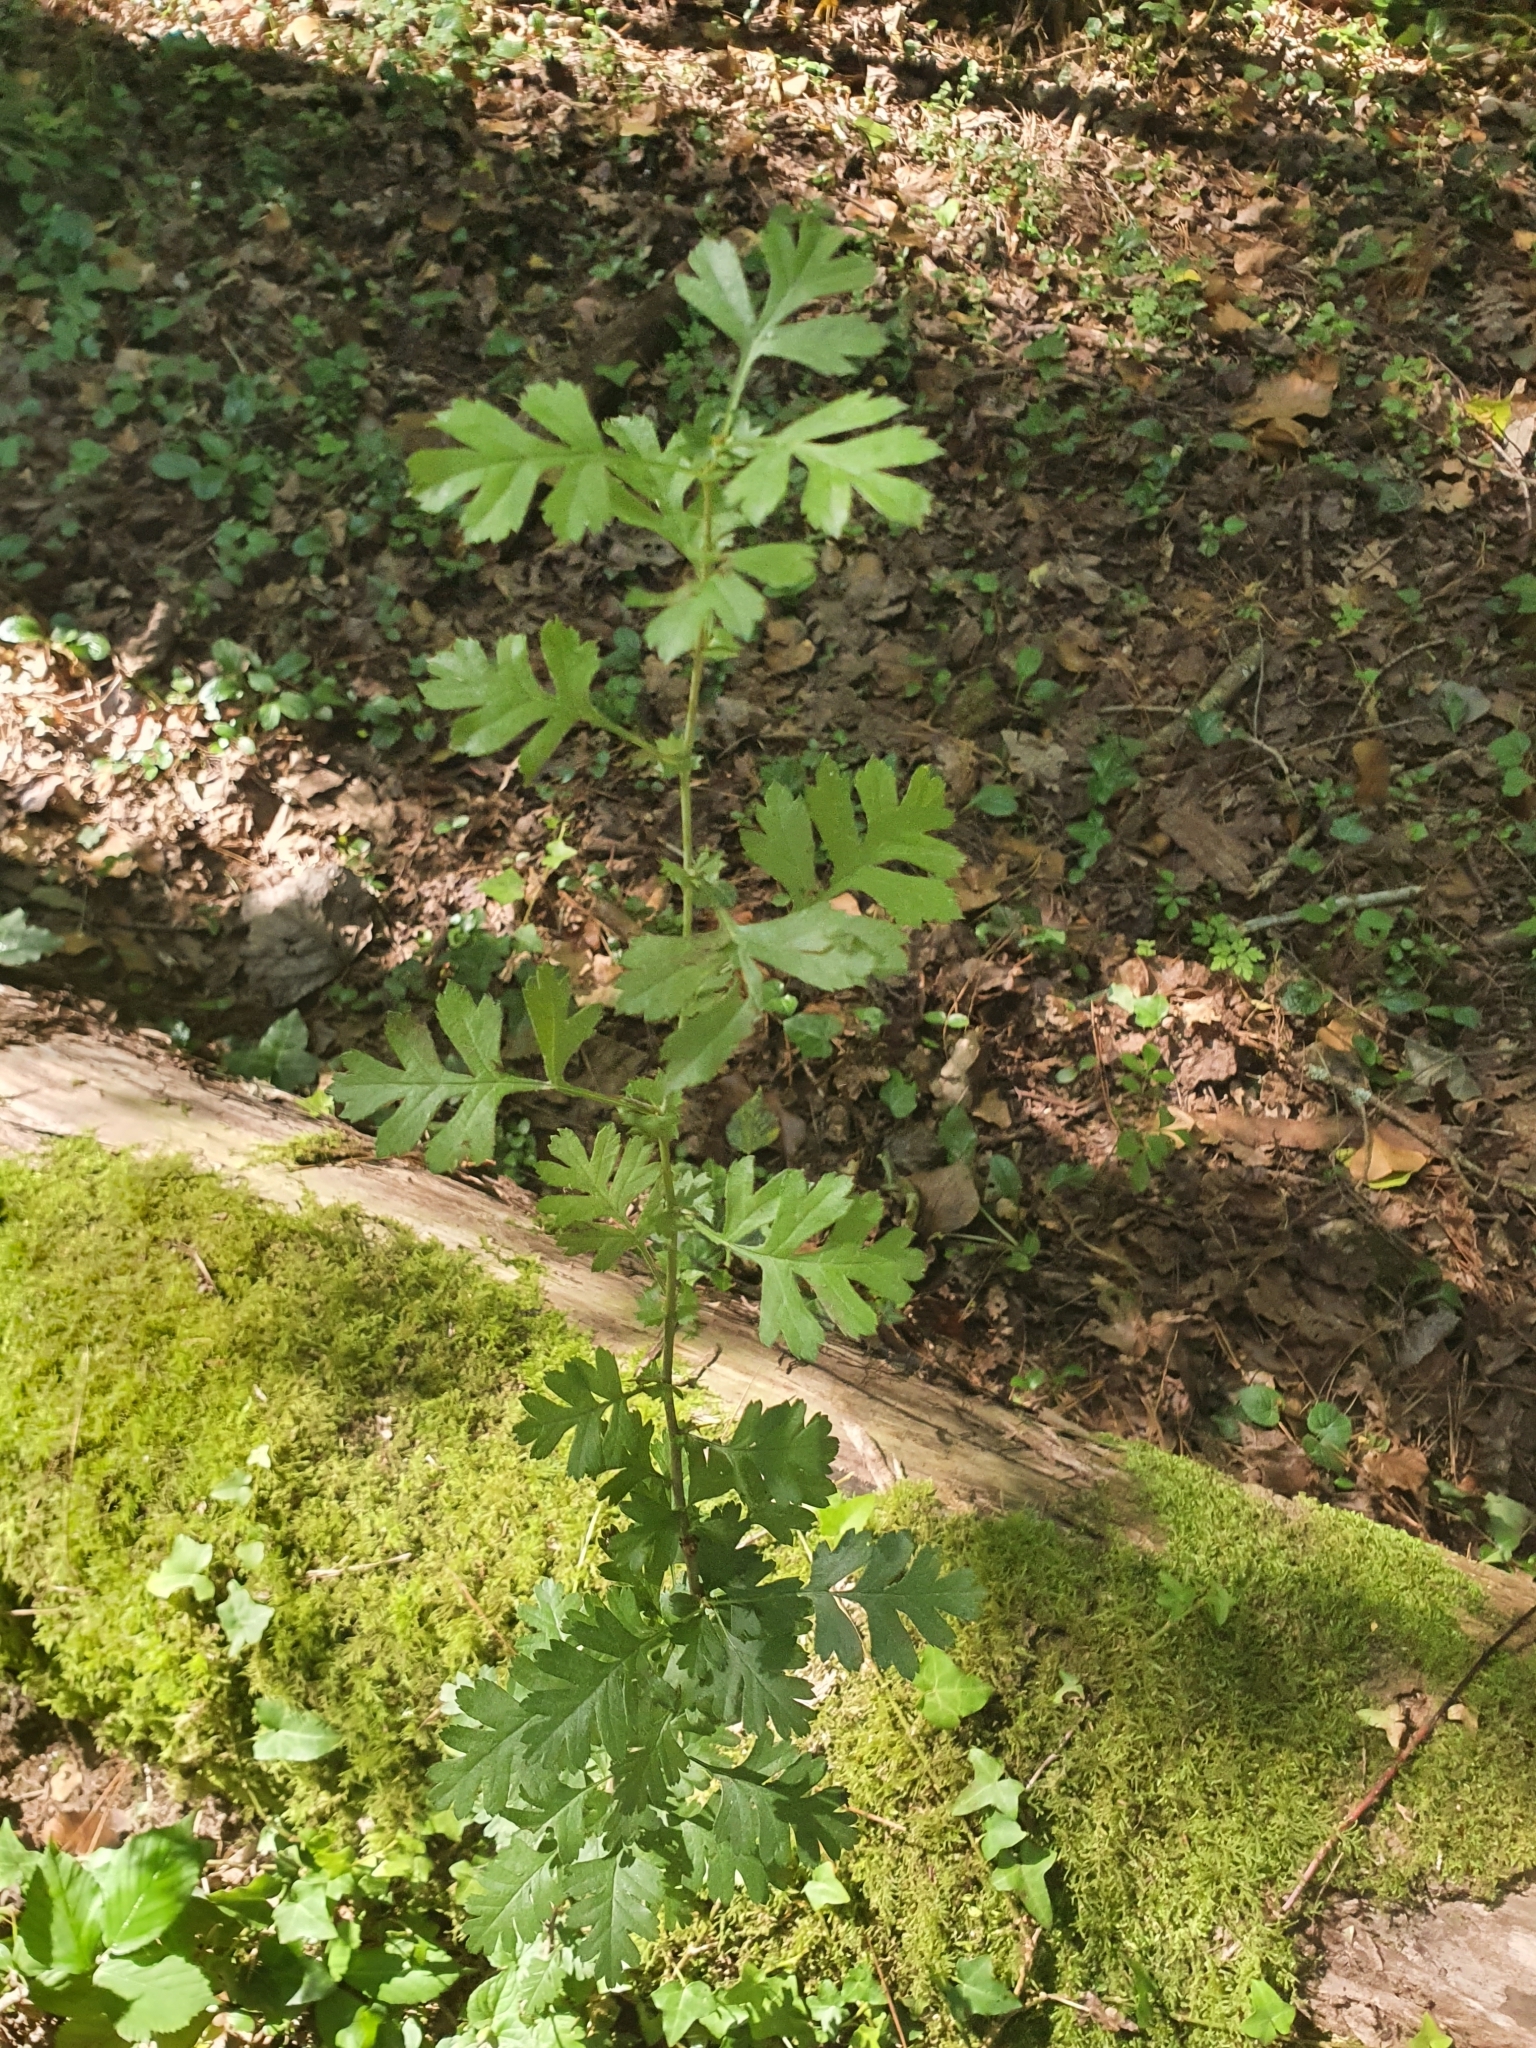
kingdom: Plantae
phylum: Tracheophyta
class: Magnoliopsida
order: Rosales
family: Rosaceae
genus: Crataegus
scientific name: Crataegus monogyna
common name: Hawthorn
